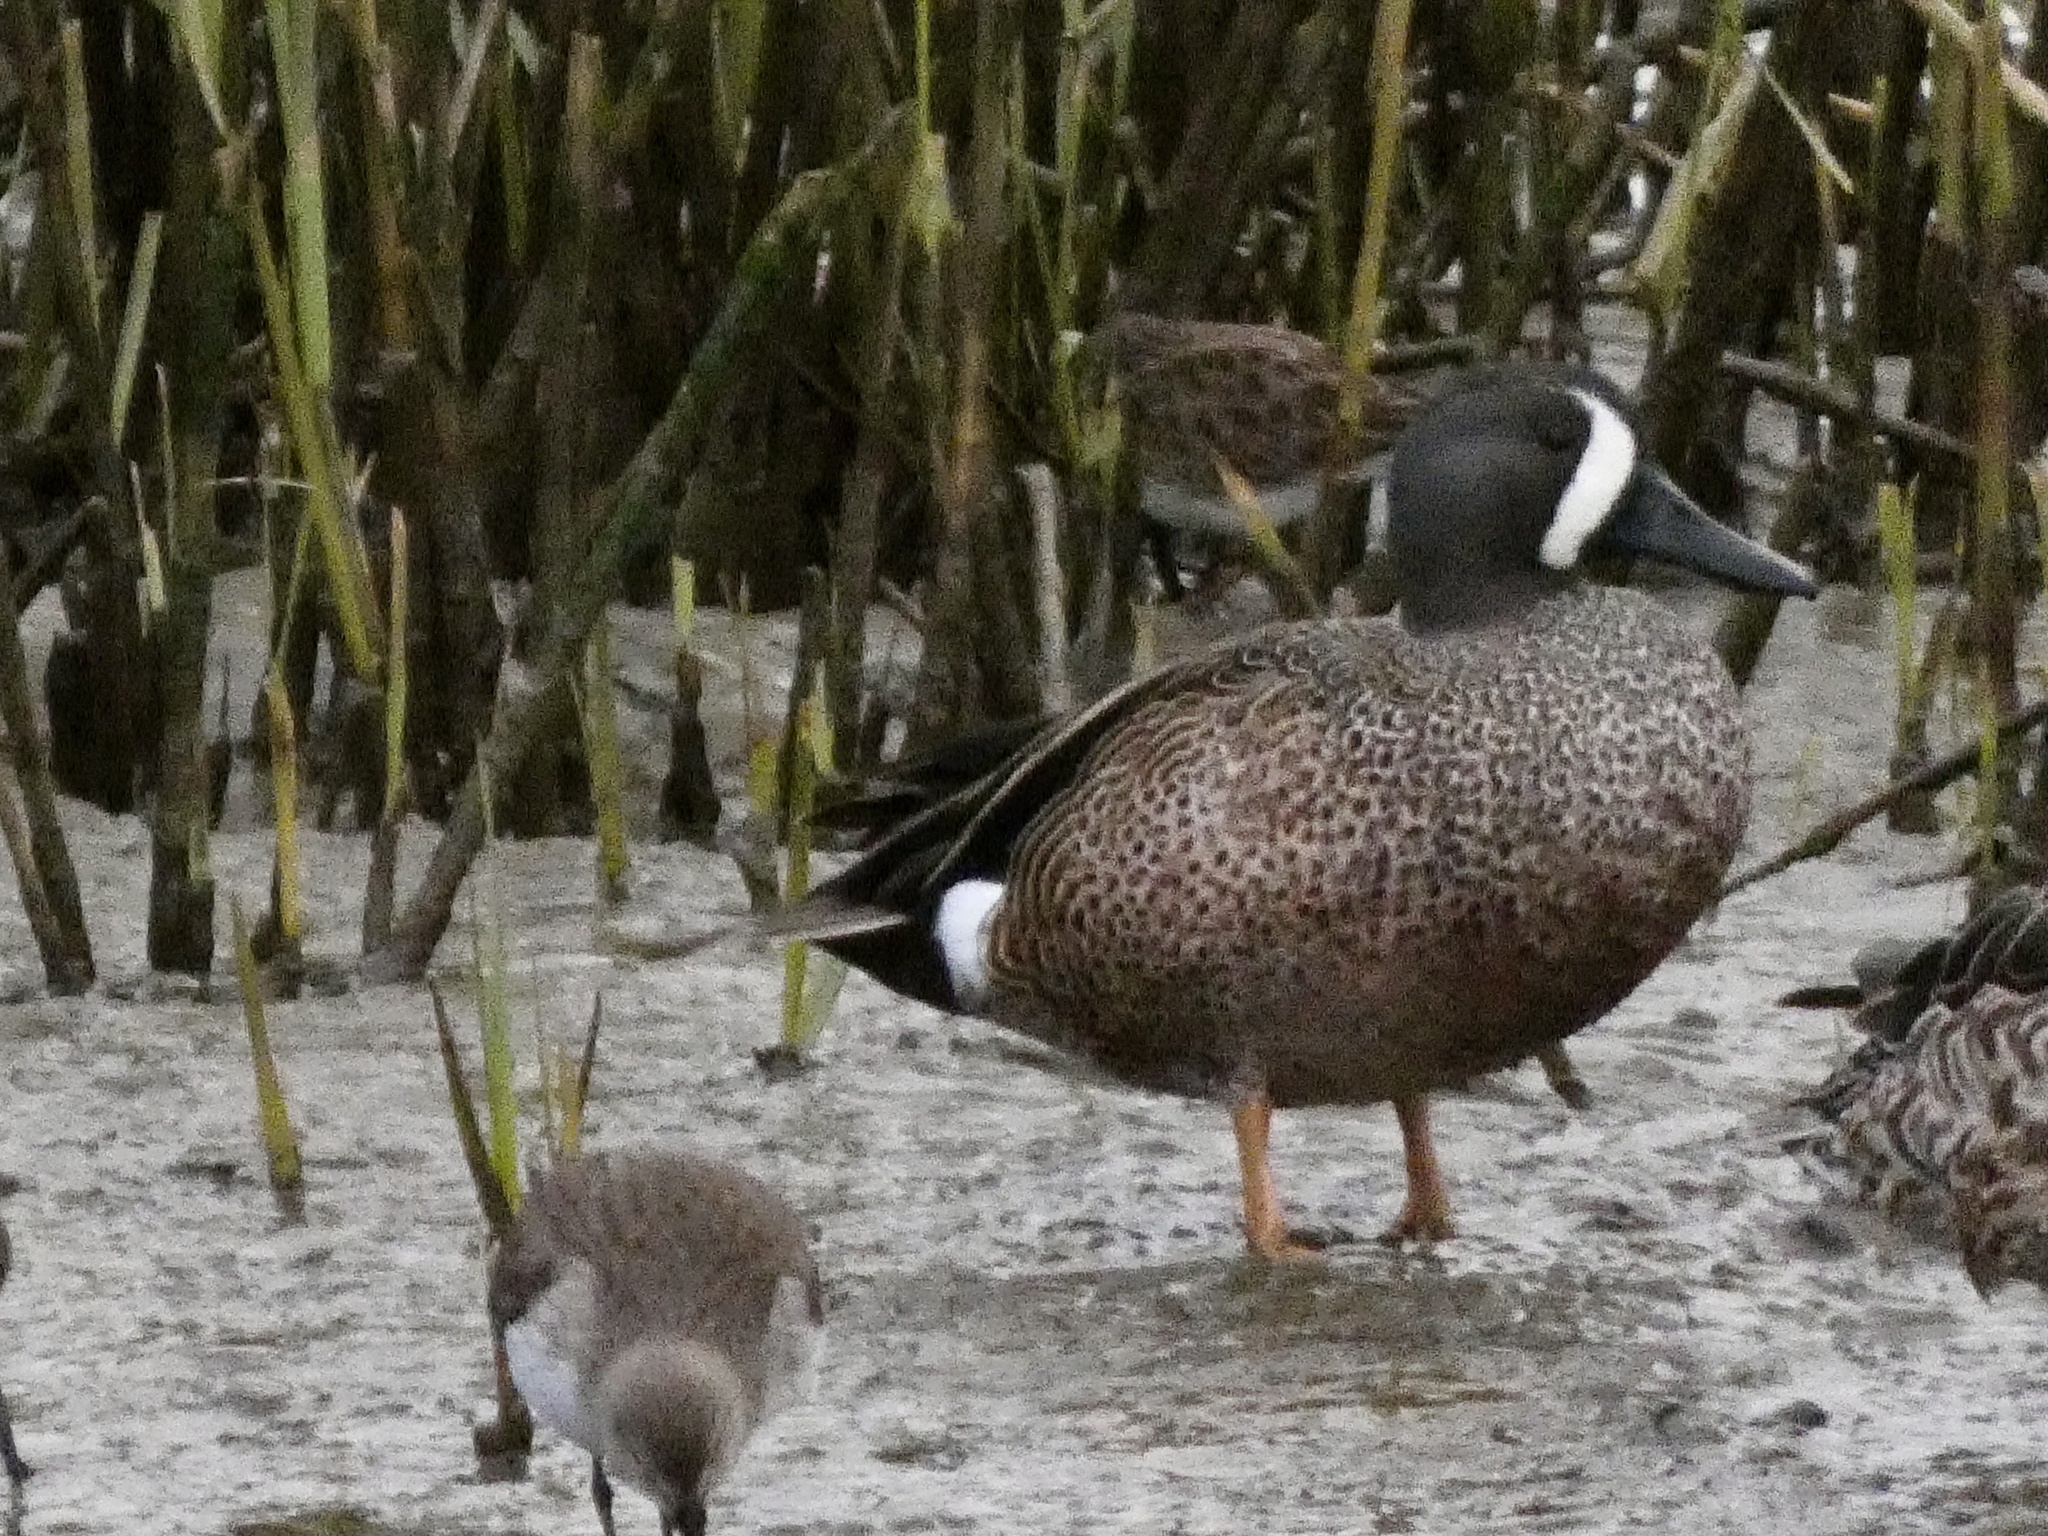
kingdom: Animalia
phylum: Chordata
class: Aves
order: Anseriformes
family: Anatidae
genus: Spatula
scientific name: Spatula discors
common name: Blue-winged teal
